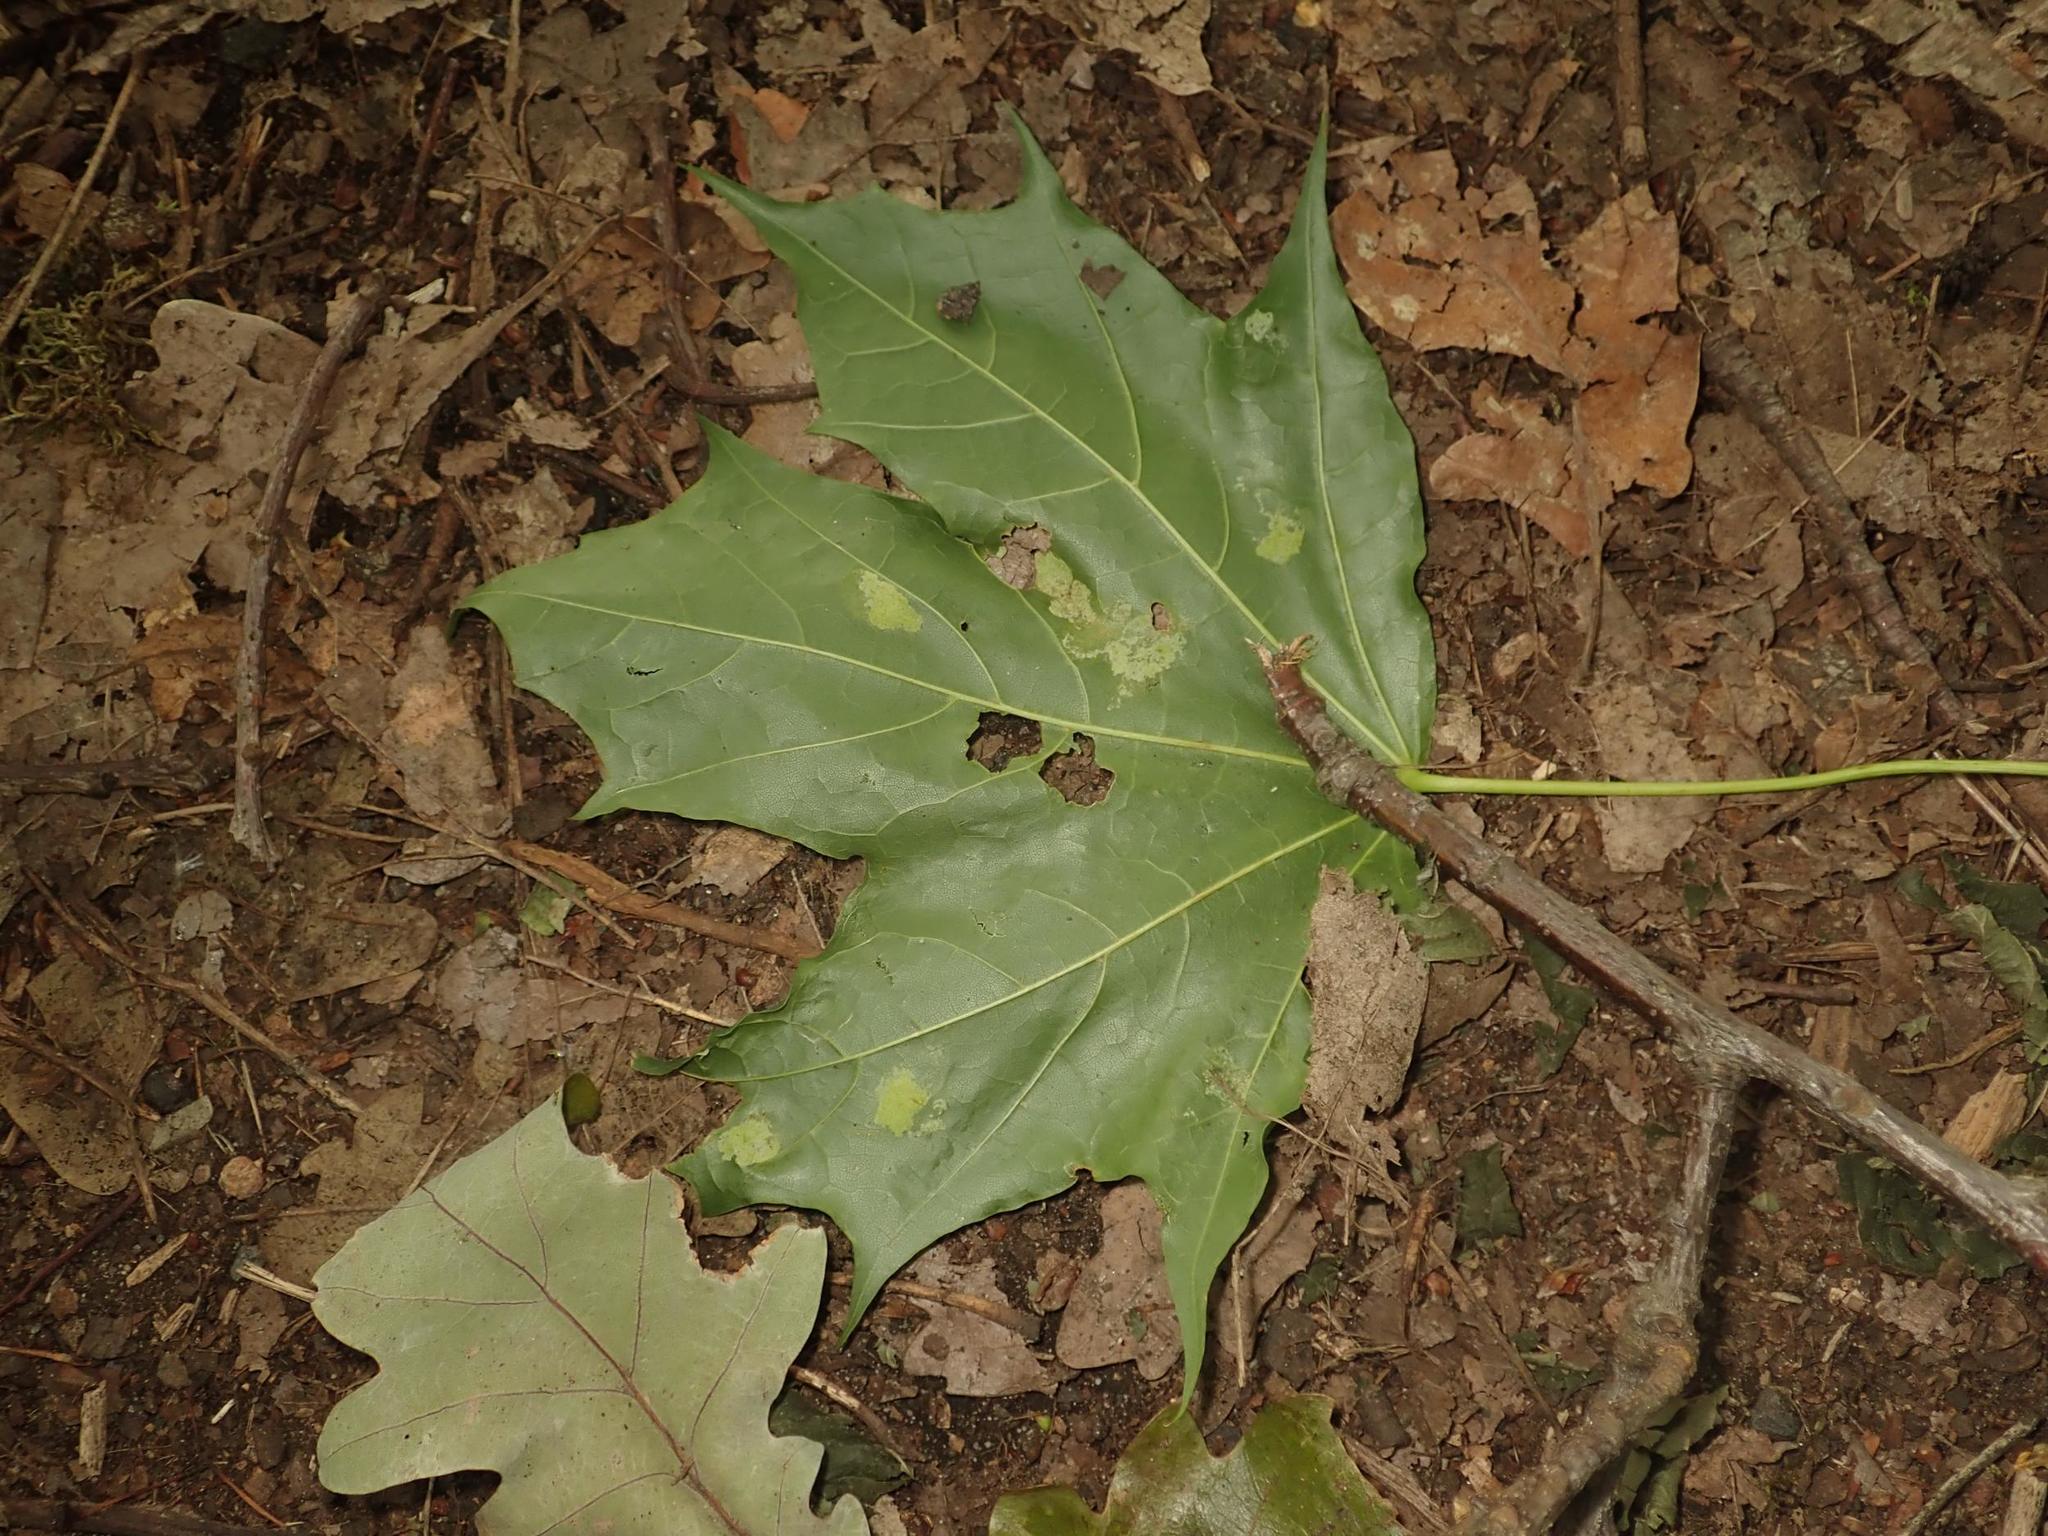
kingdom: Plantae
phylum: Tracheophyta
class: Magnoliopsida
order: Sapindales
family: Sapindaceae
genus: Acer
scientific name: Acer platanoides
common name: Norway maple
